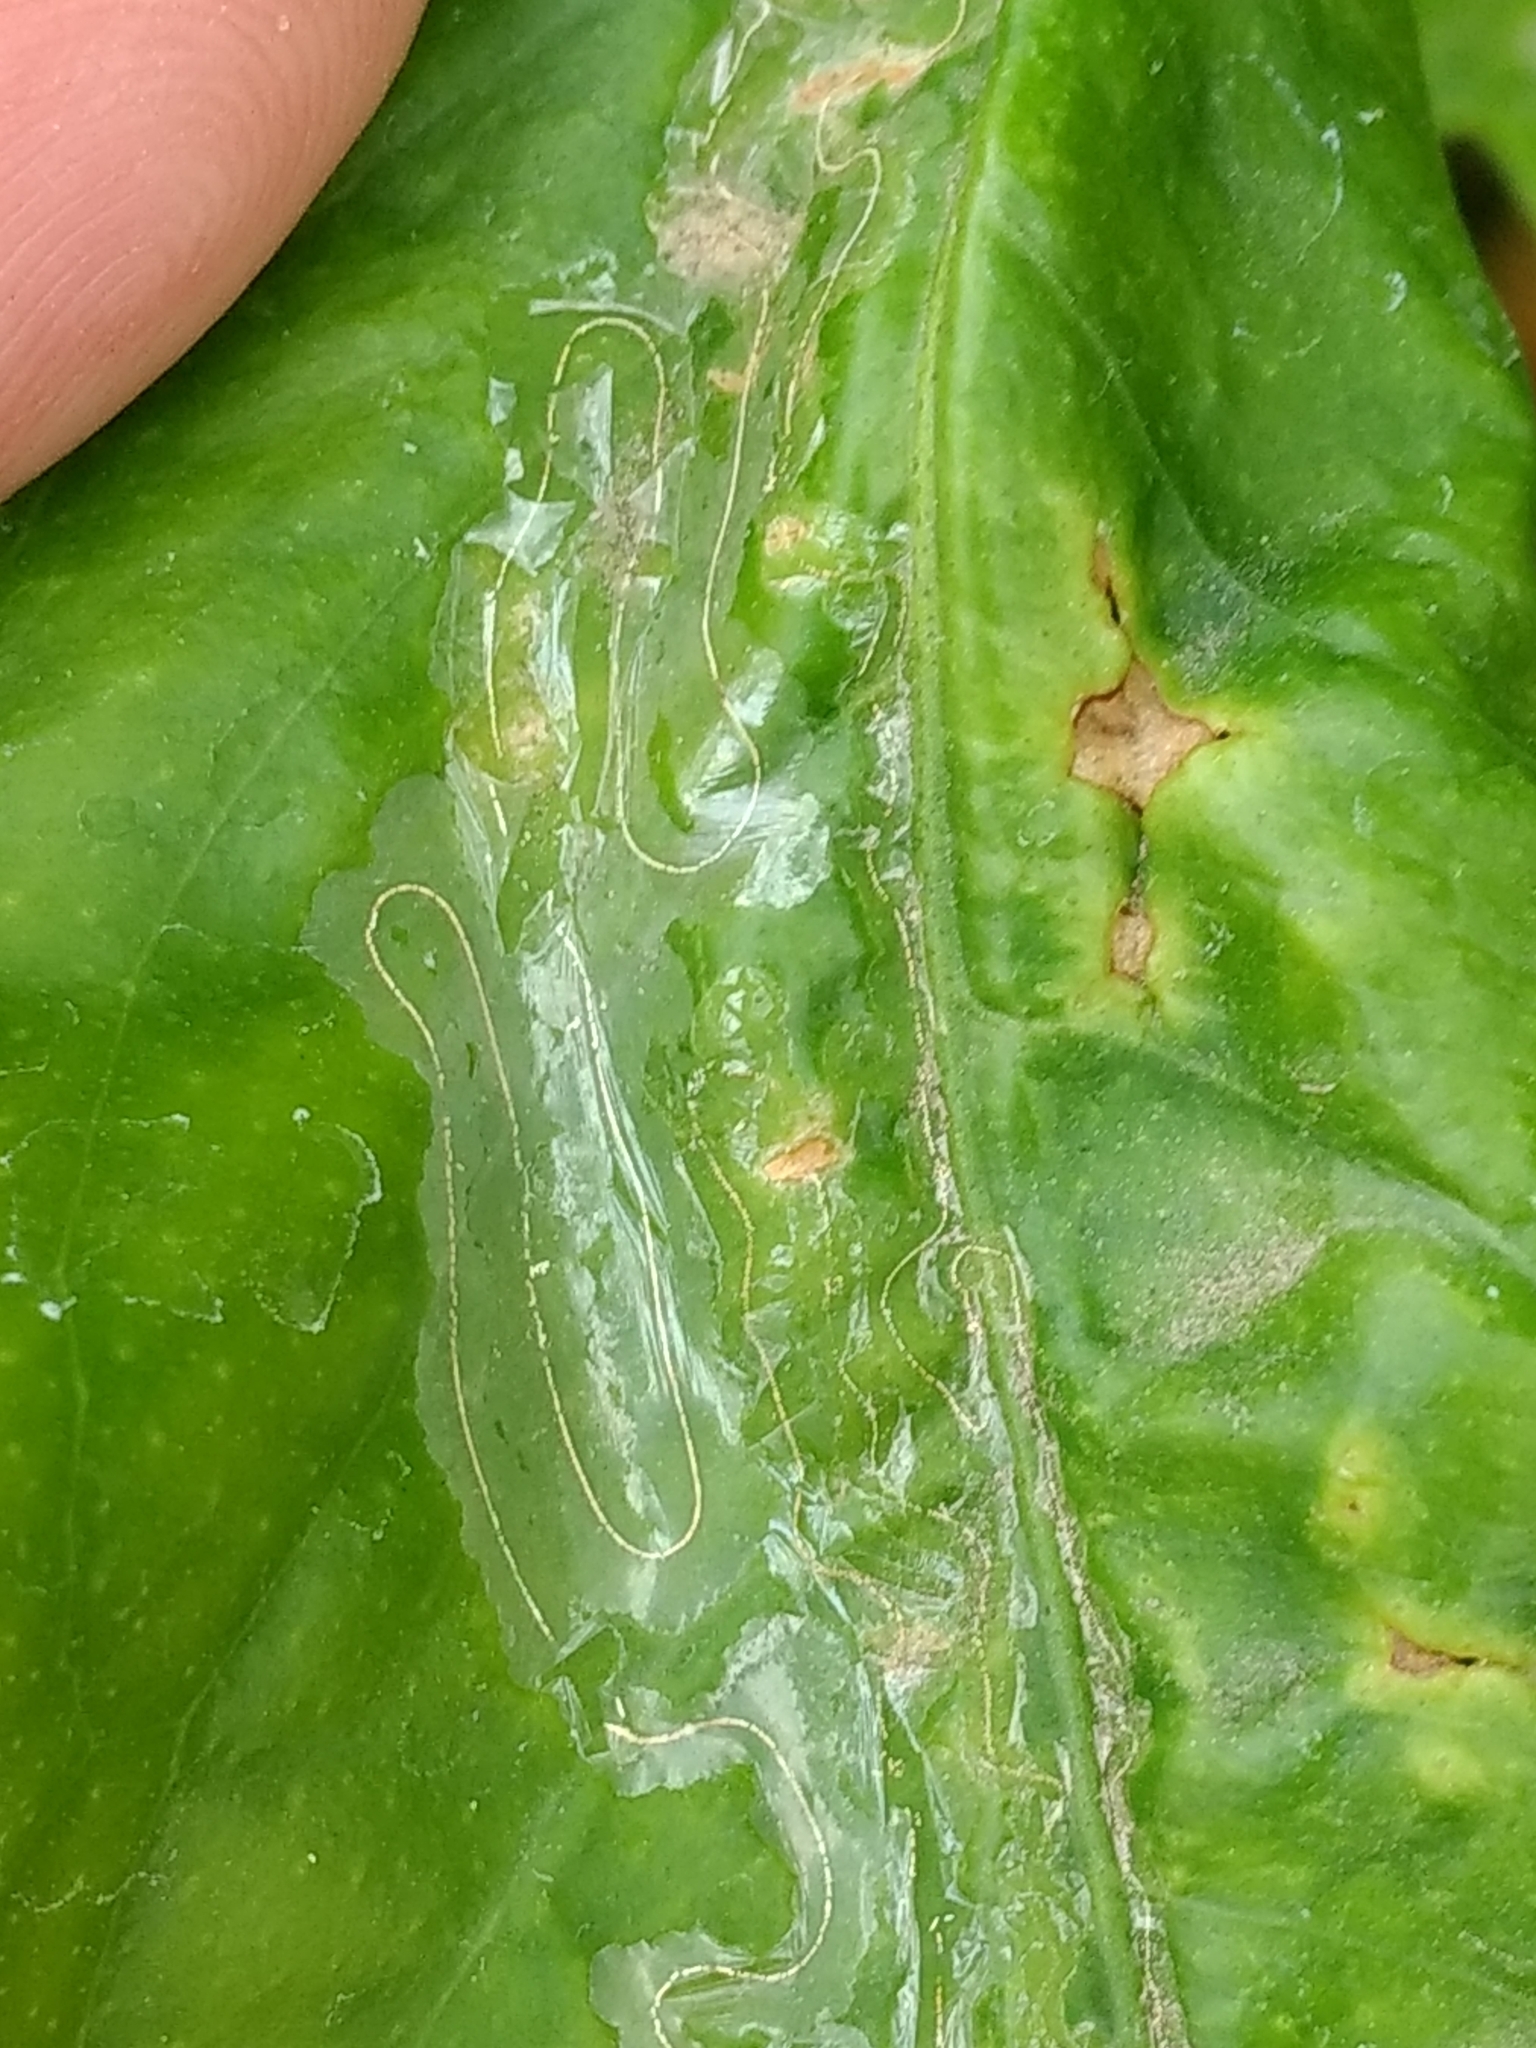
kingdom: Animalia
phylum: Arthropoda
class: Insecta
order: Lepidoptera
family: Gracillariidae
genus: Phyllocnistis
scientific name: Phyllocnistis citrella
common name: Citrus leafminer
